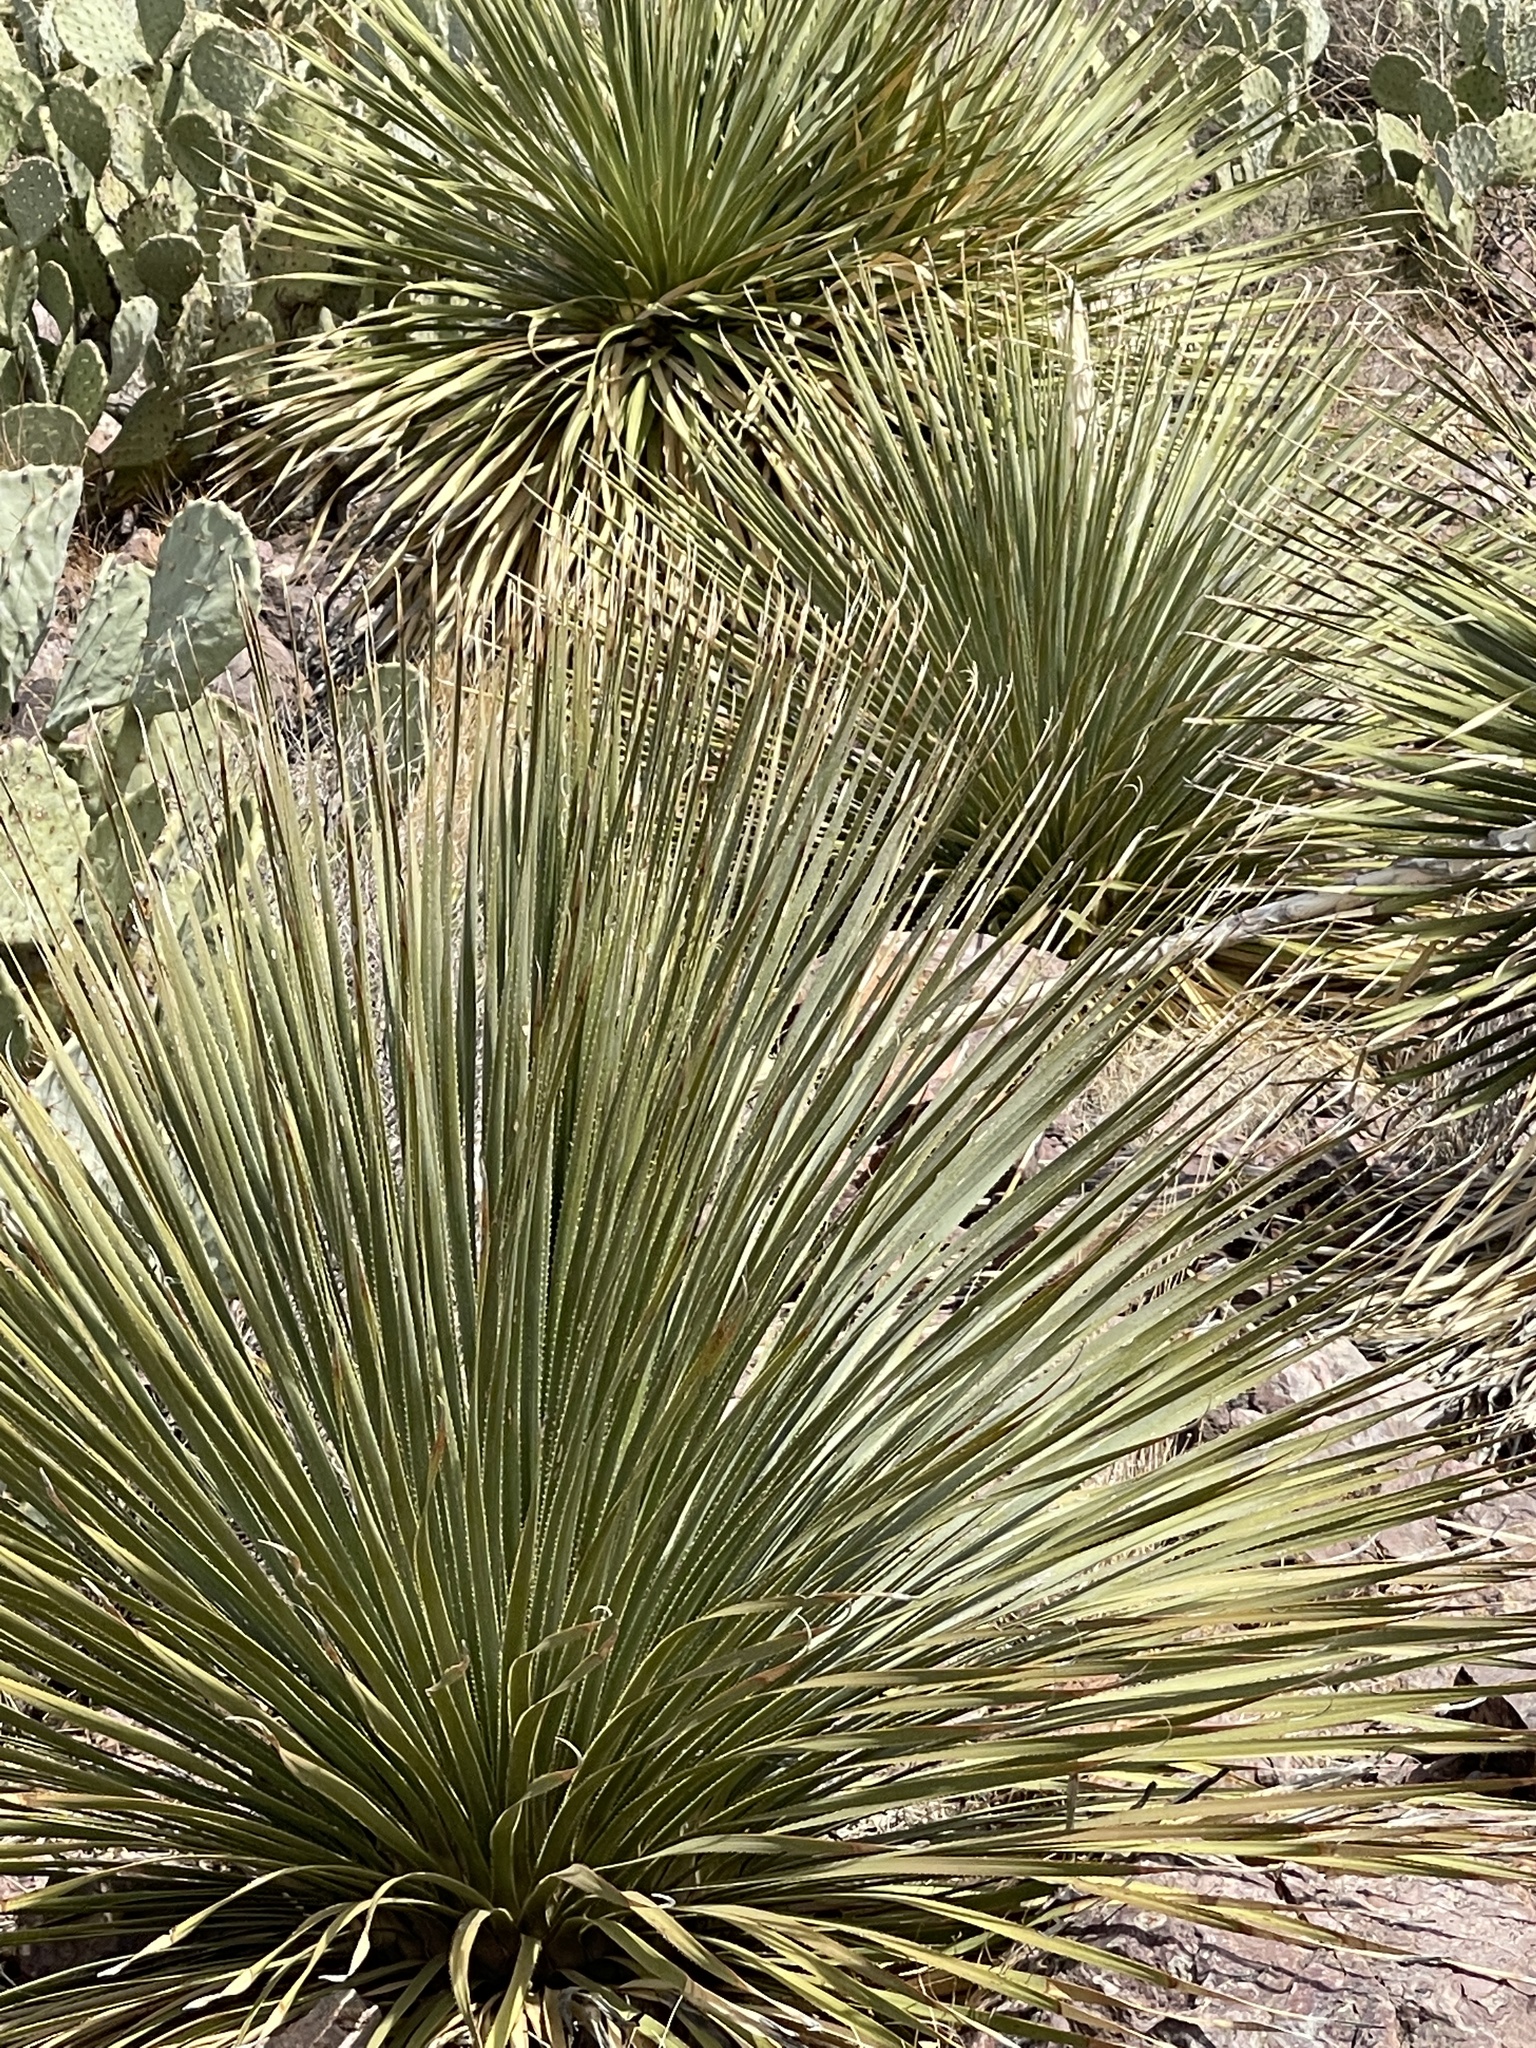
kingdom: Plantae
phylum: Tracheophyta
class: Liliopsida
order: Asparagales
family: Asparagaceae
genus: Dasylirion
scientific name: Dasylirion wheeleri
